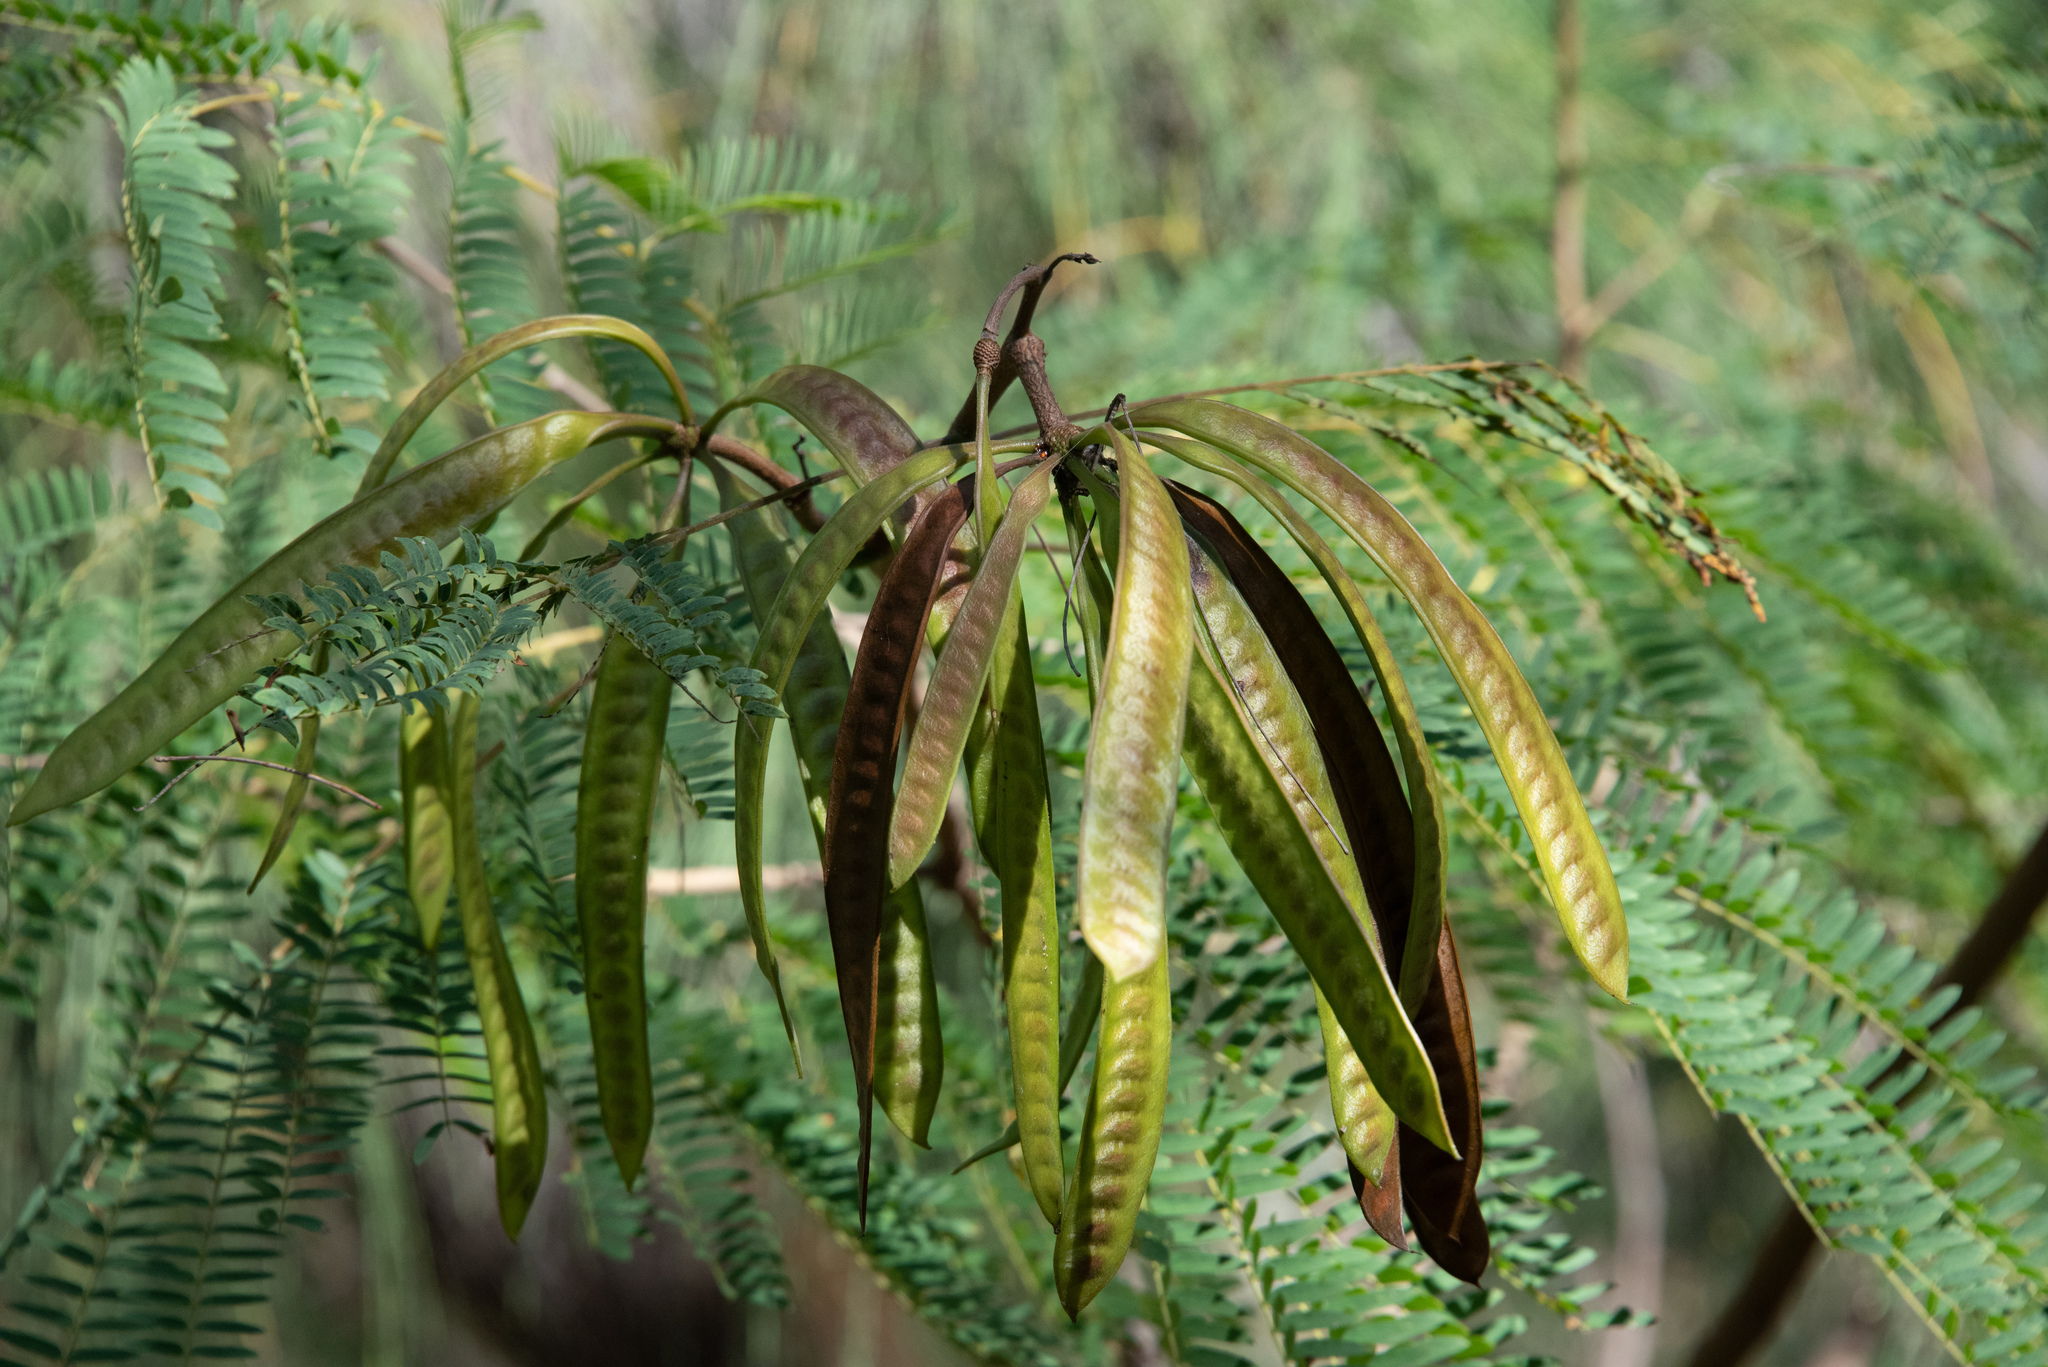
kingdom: Plantae
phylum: Tracheophyta
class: Magnoliopsida
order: Fabales
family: Fabaceae
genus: Leucaena
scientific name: Leucaena leucocephala
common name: White leadtree
